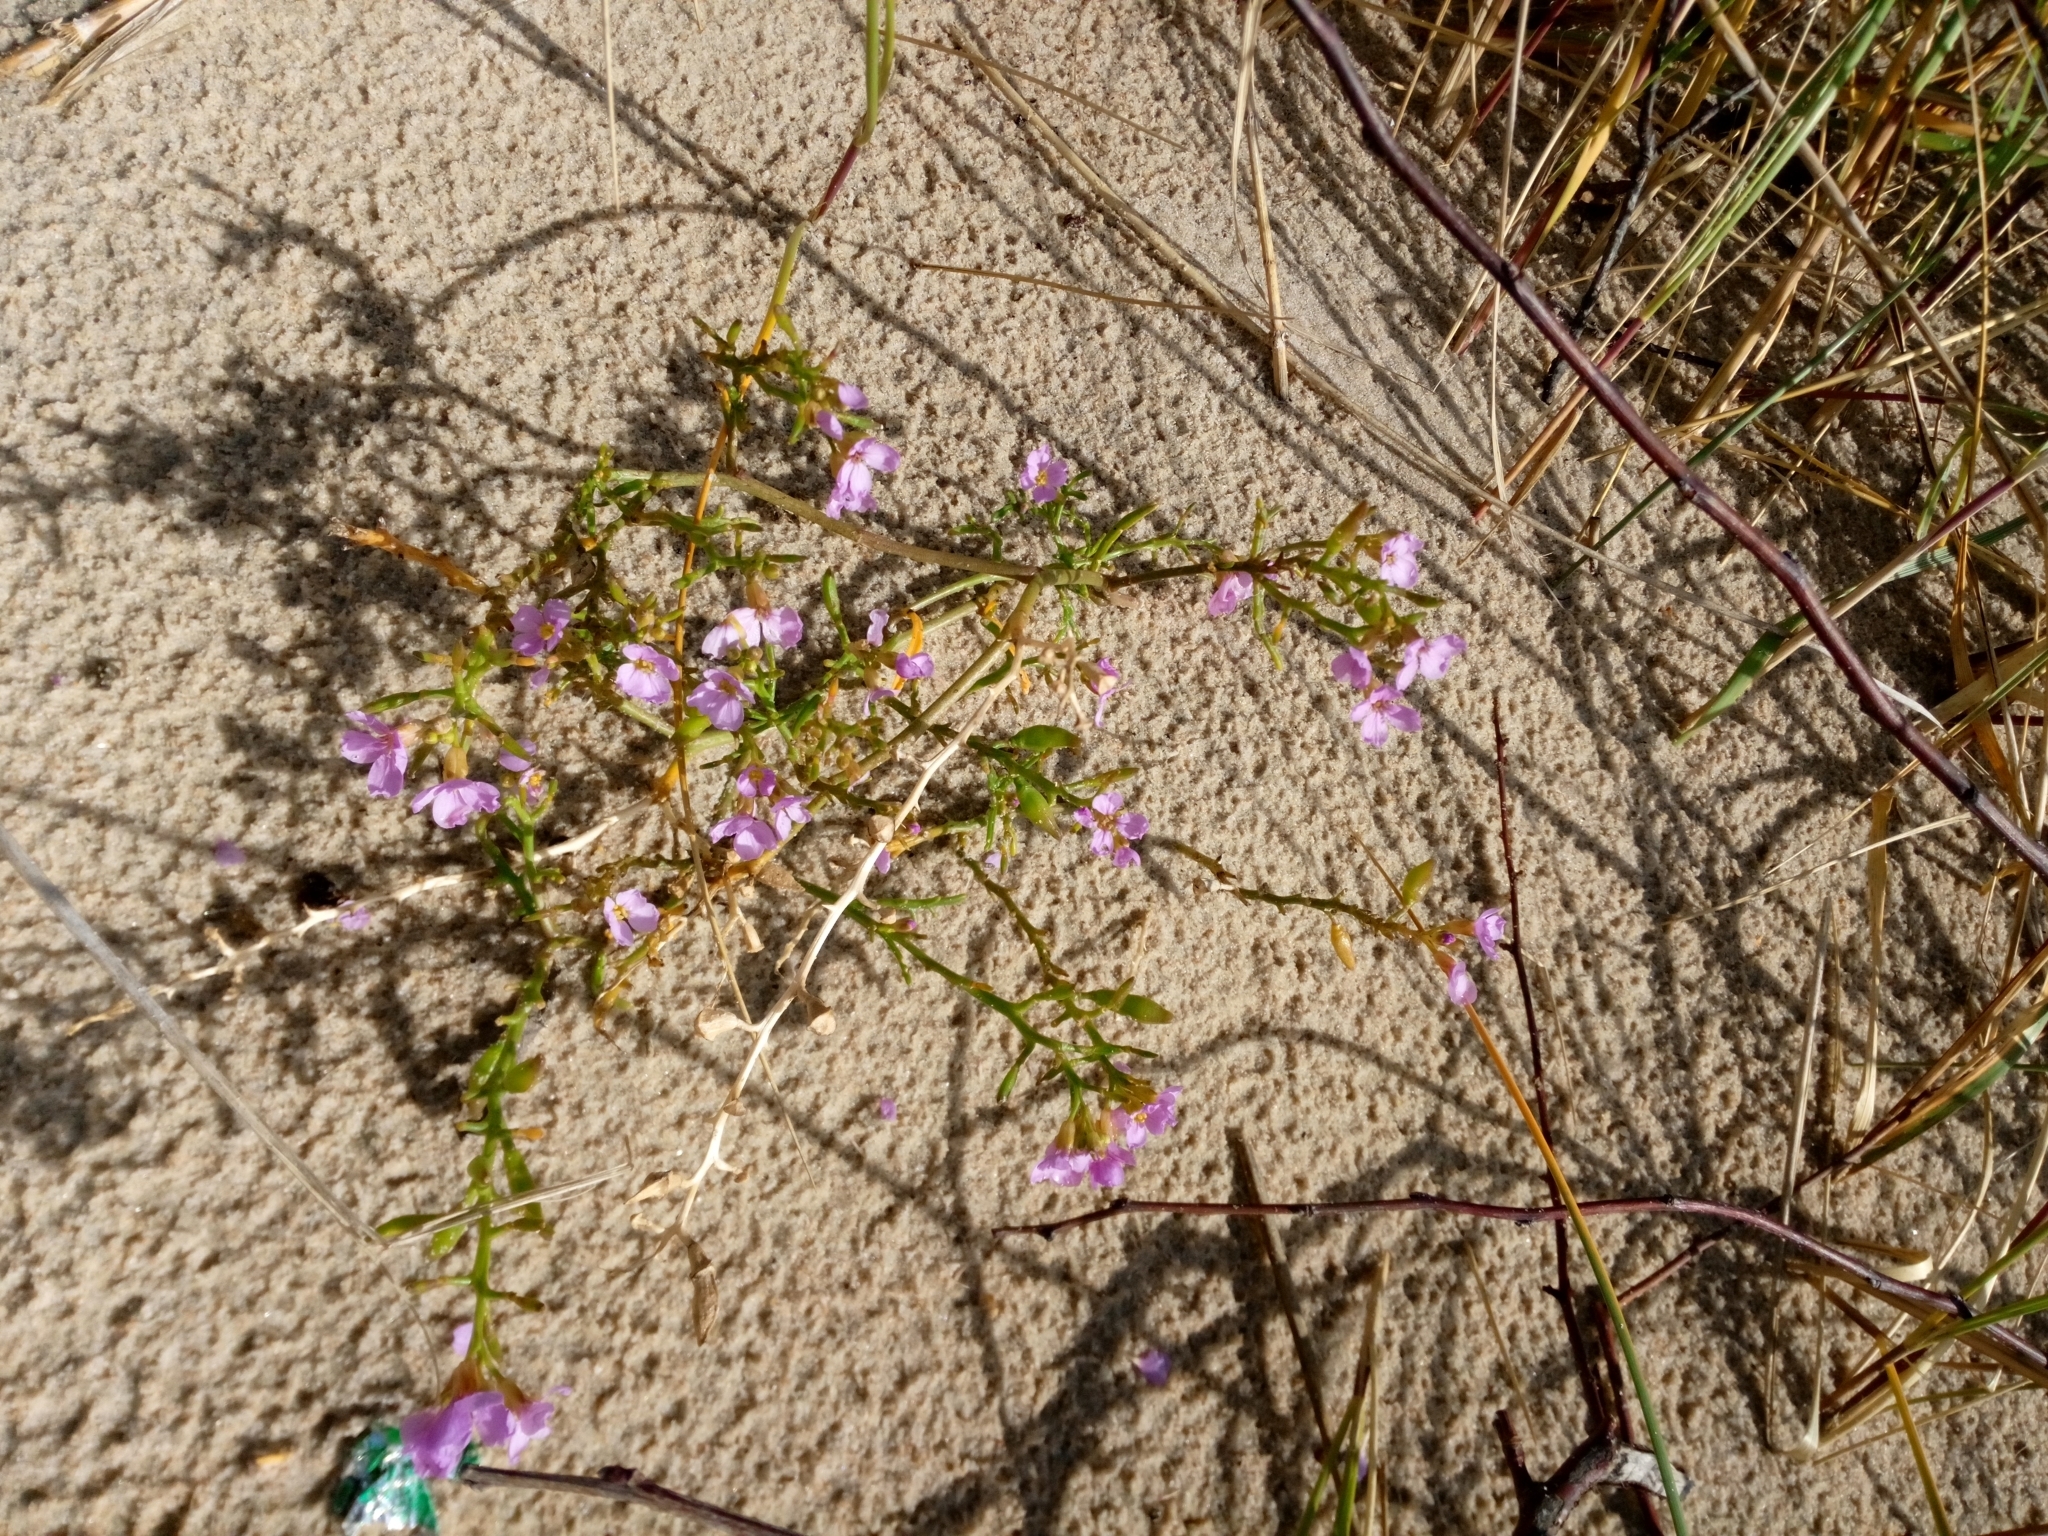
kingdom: Plantae
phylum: Tracheophyta
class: Magnoliopsida
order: Brassicales
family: Brassicaceae
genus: Cakile
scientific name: Cakile maritima
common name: Sea rocket
